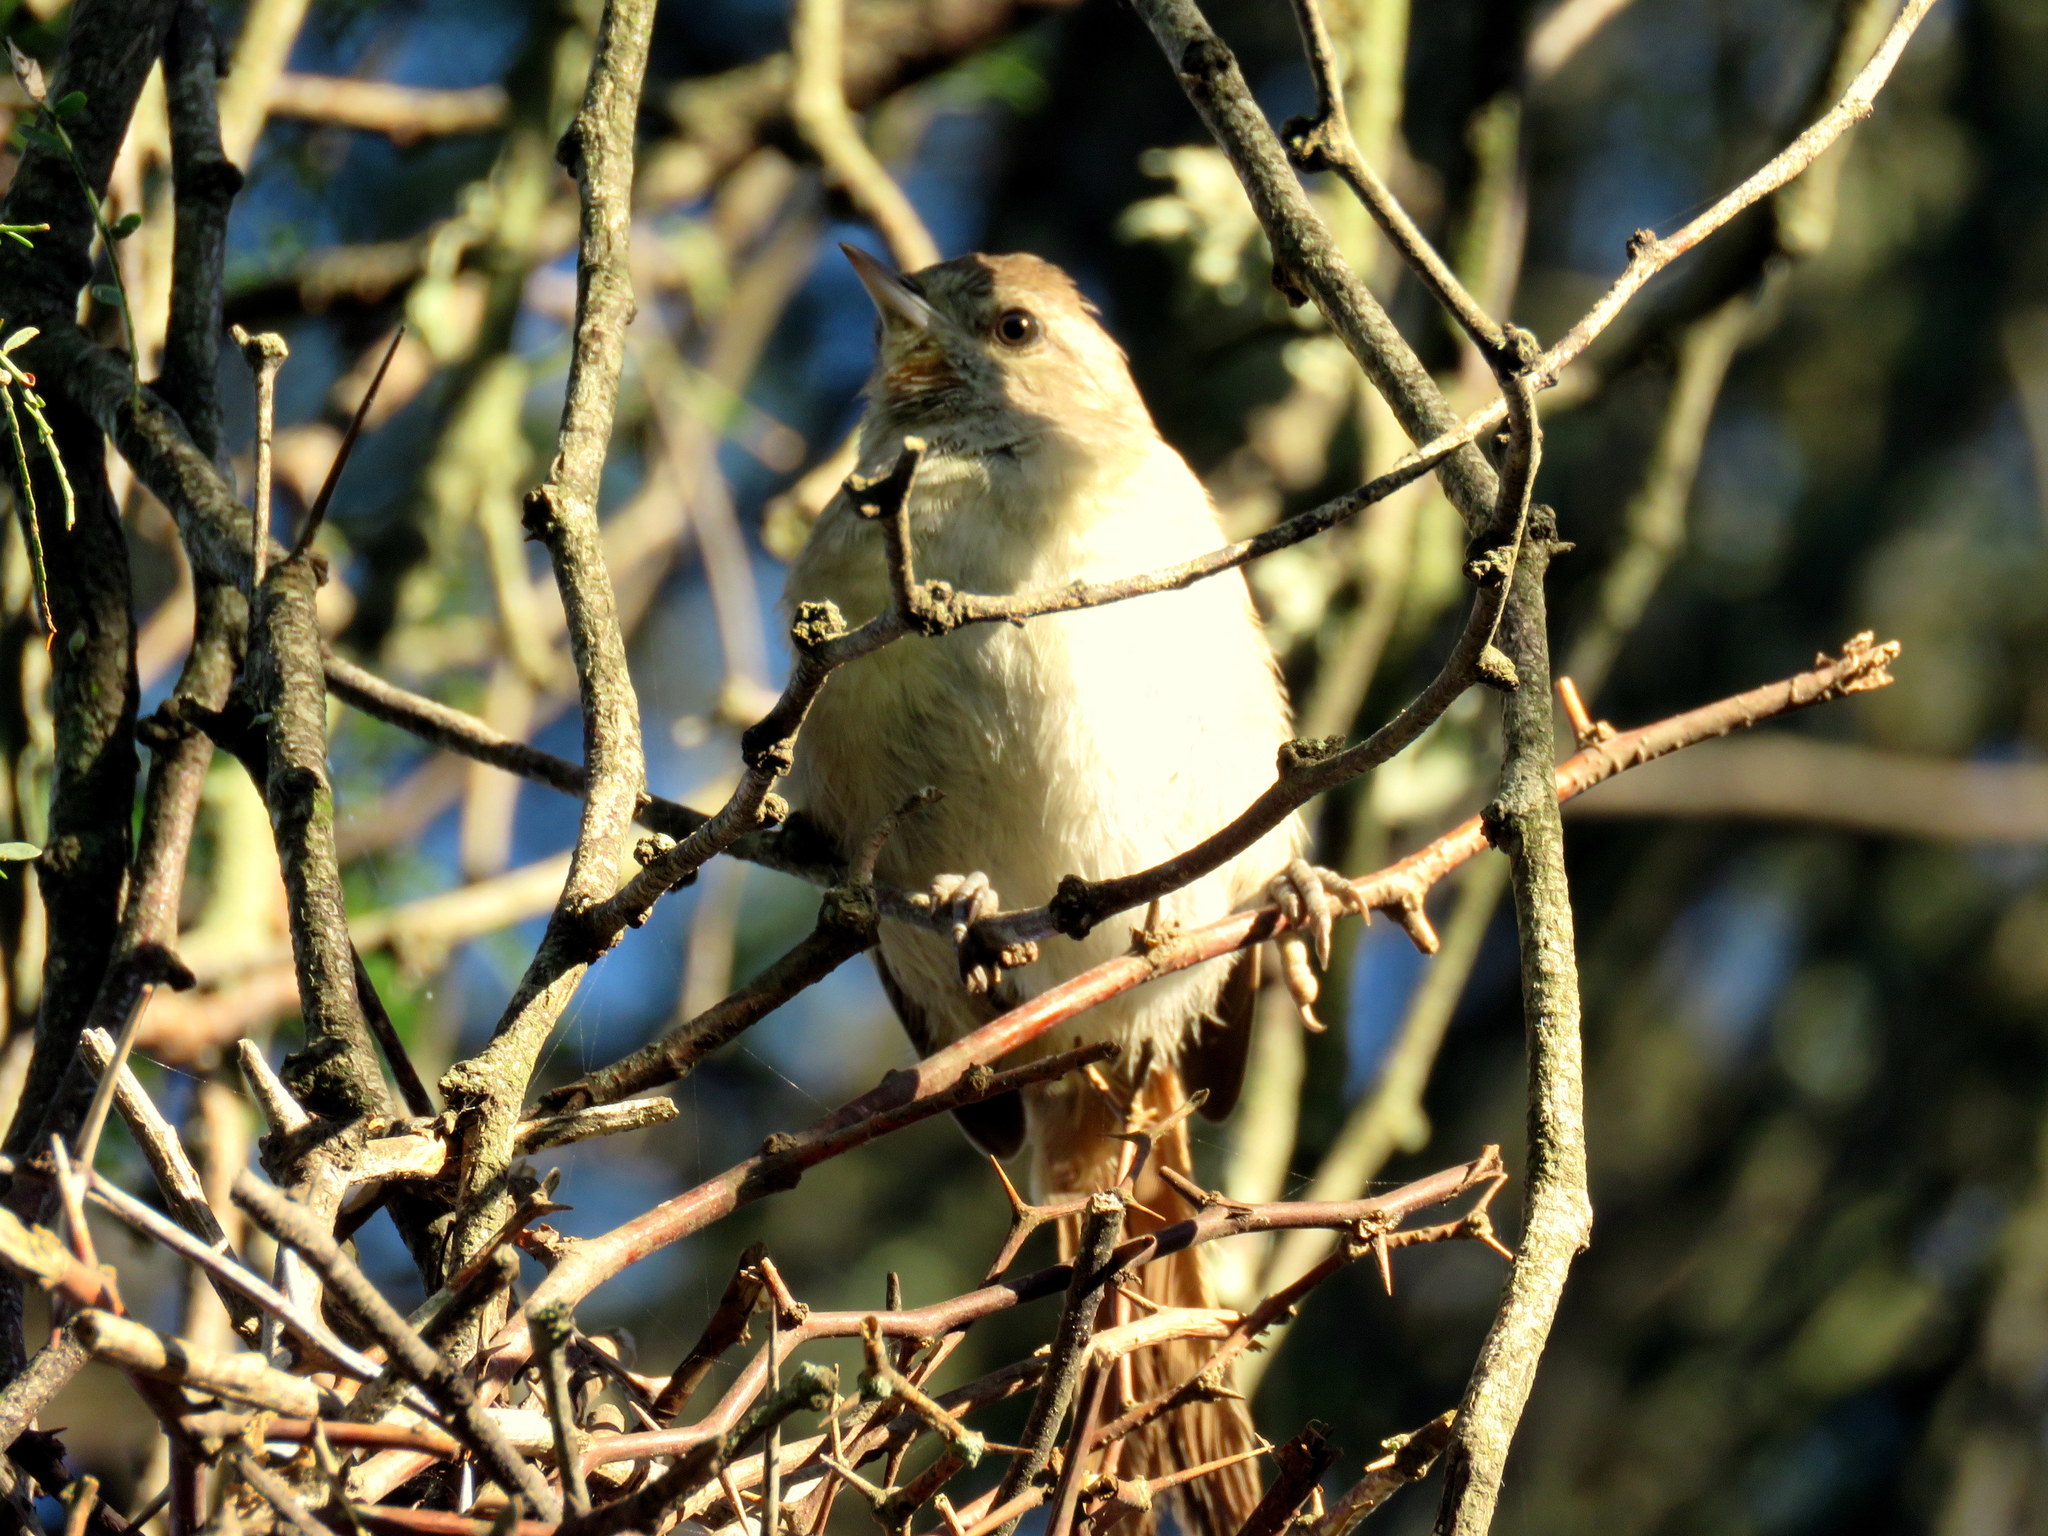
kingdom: Animalia
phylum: Chordata
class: Aves
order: Passeriformes
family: Furnariidae
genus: Asthenes
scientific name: Asthenes baeri
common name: Short-billed canastero
